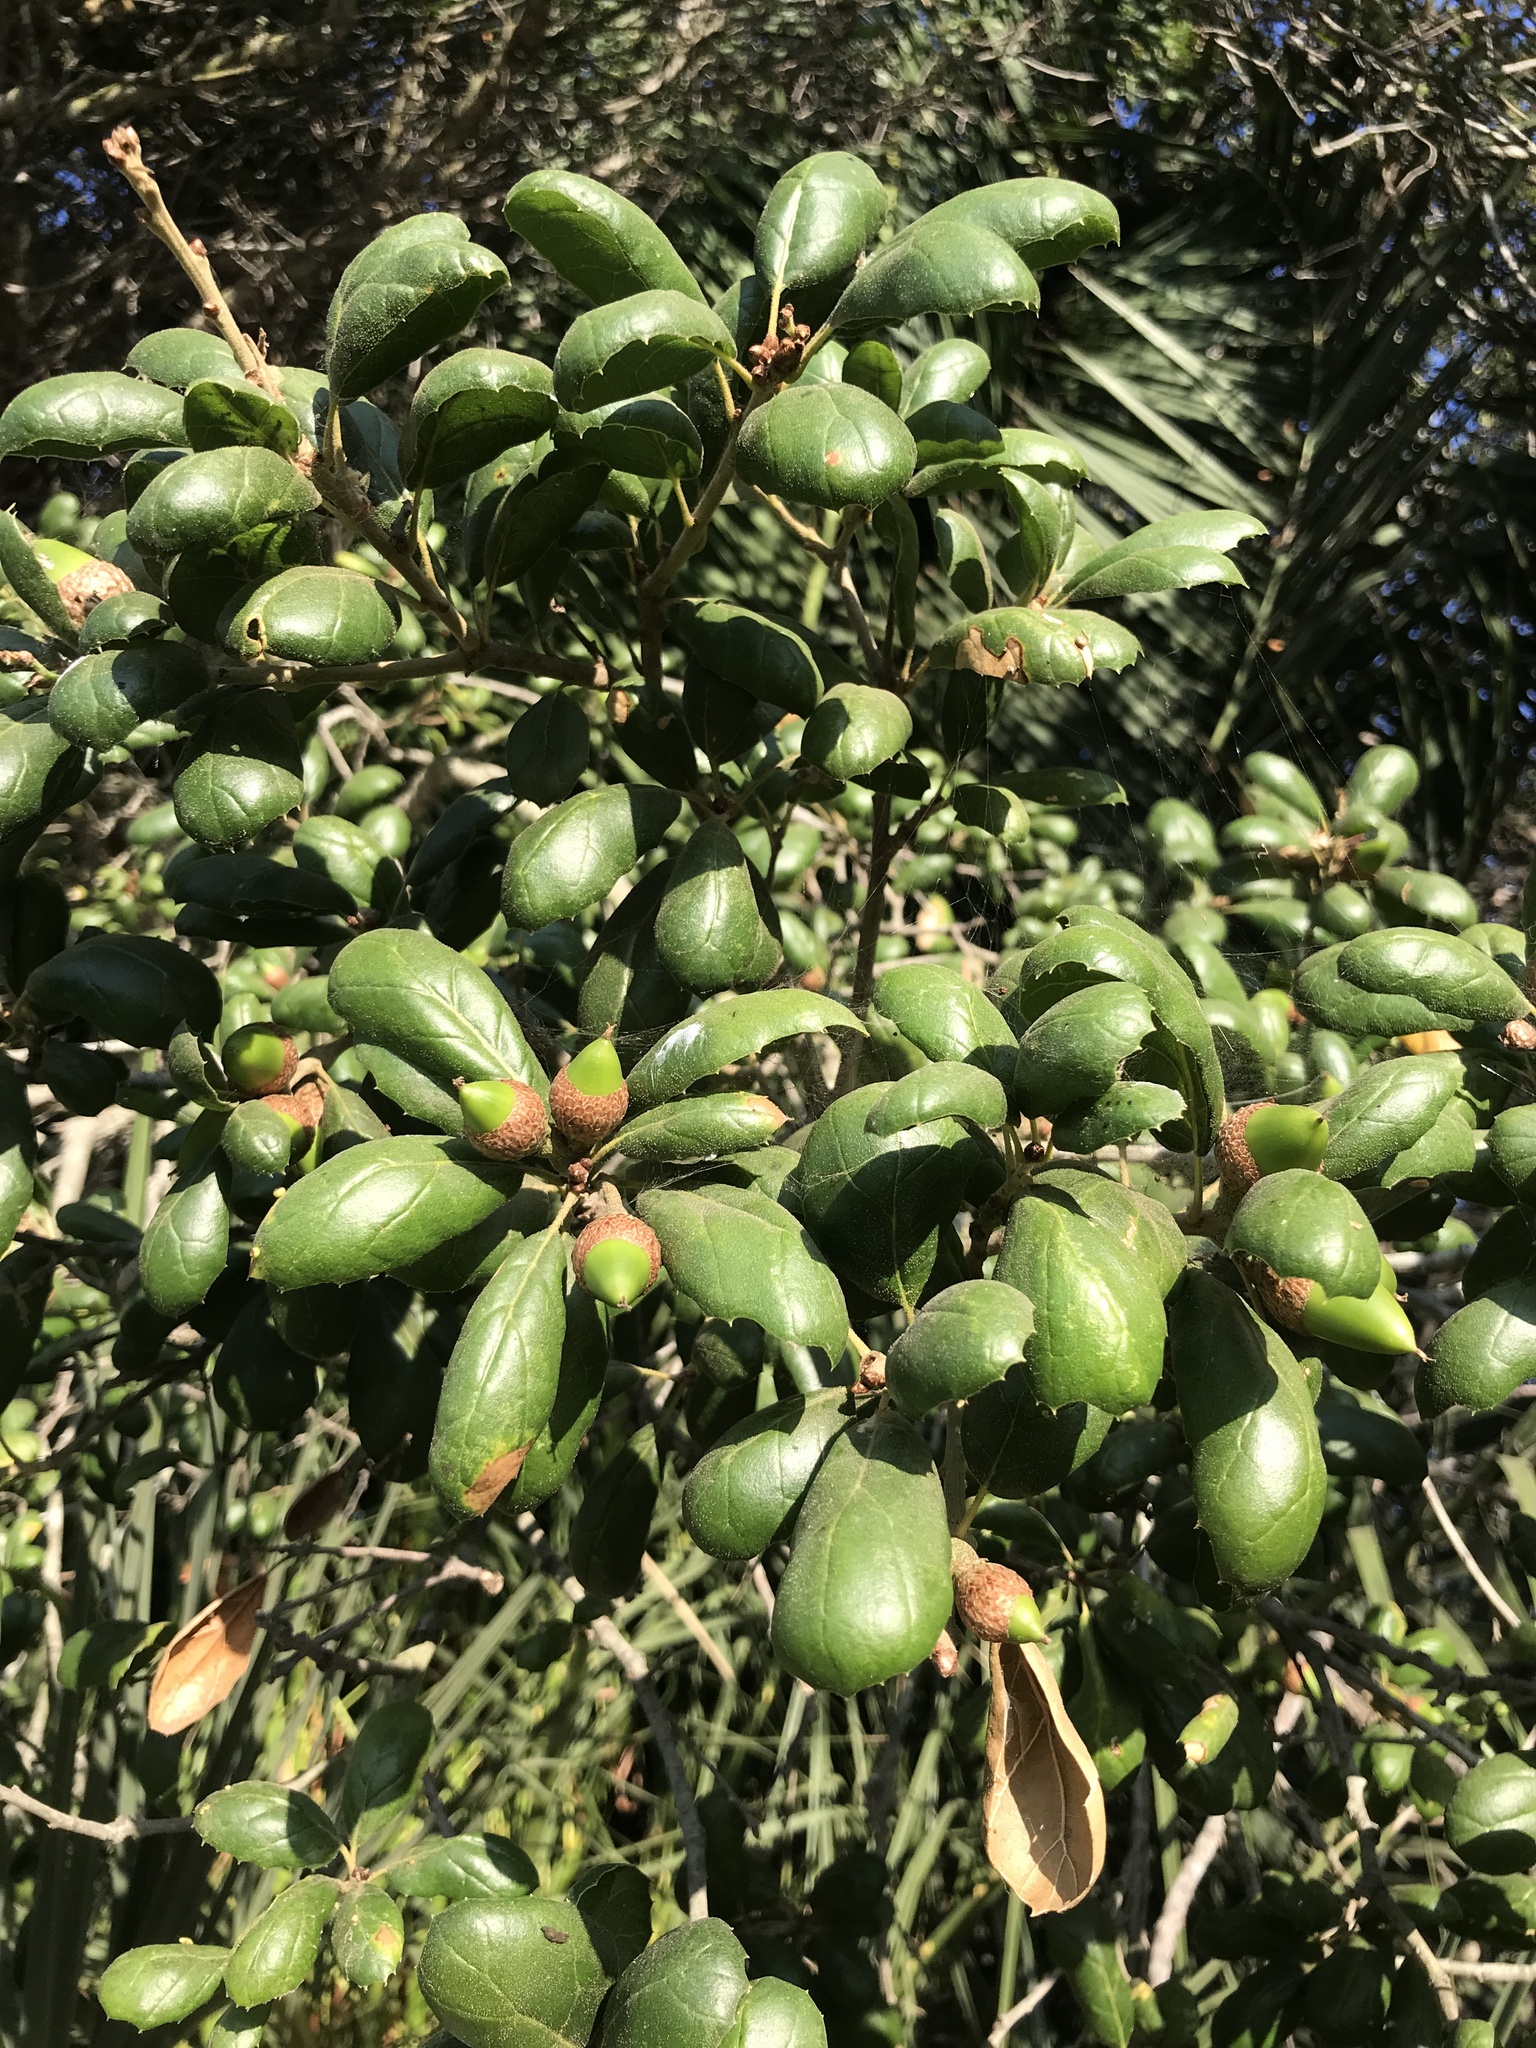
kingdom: Plantae
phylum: Tracheophyta
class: Magnoliopsida
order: Fagales
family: Fagaceae
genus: Quercus
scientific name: Quercus agrifolia
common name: California live oak
